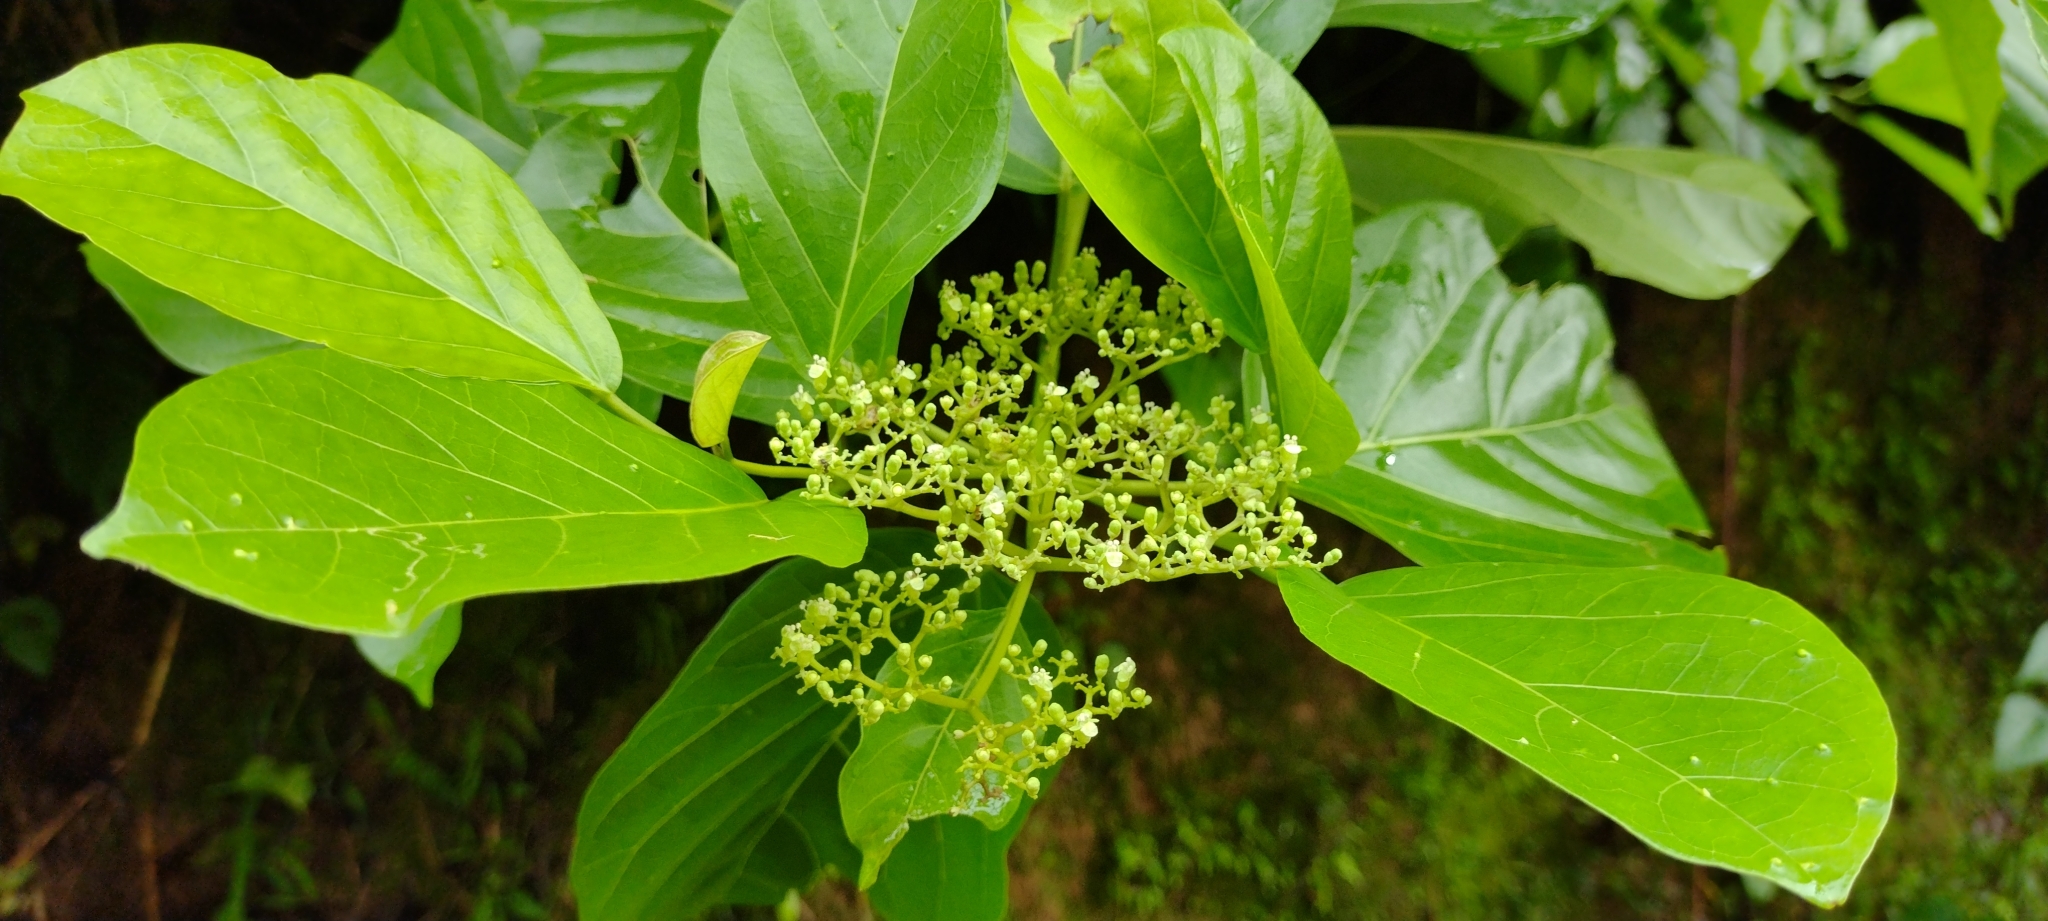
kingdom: Plantae
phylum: Tracheophyta
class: Magnoliopsida
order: Lamiales
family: Lamiaceae
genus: Premna
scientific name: Premna serratifolia
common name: Bastard guelder
